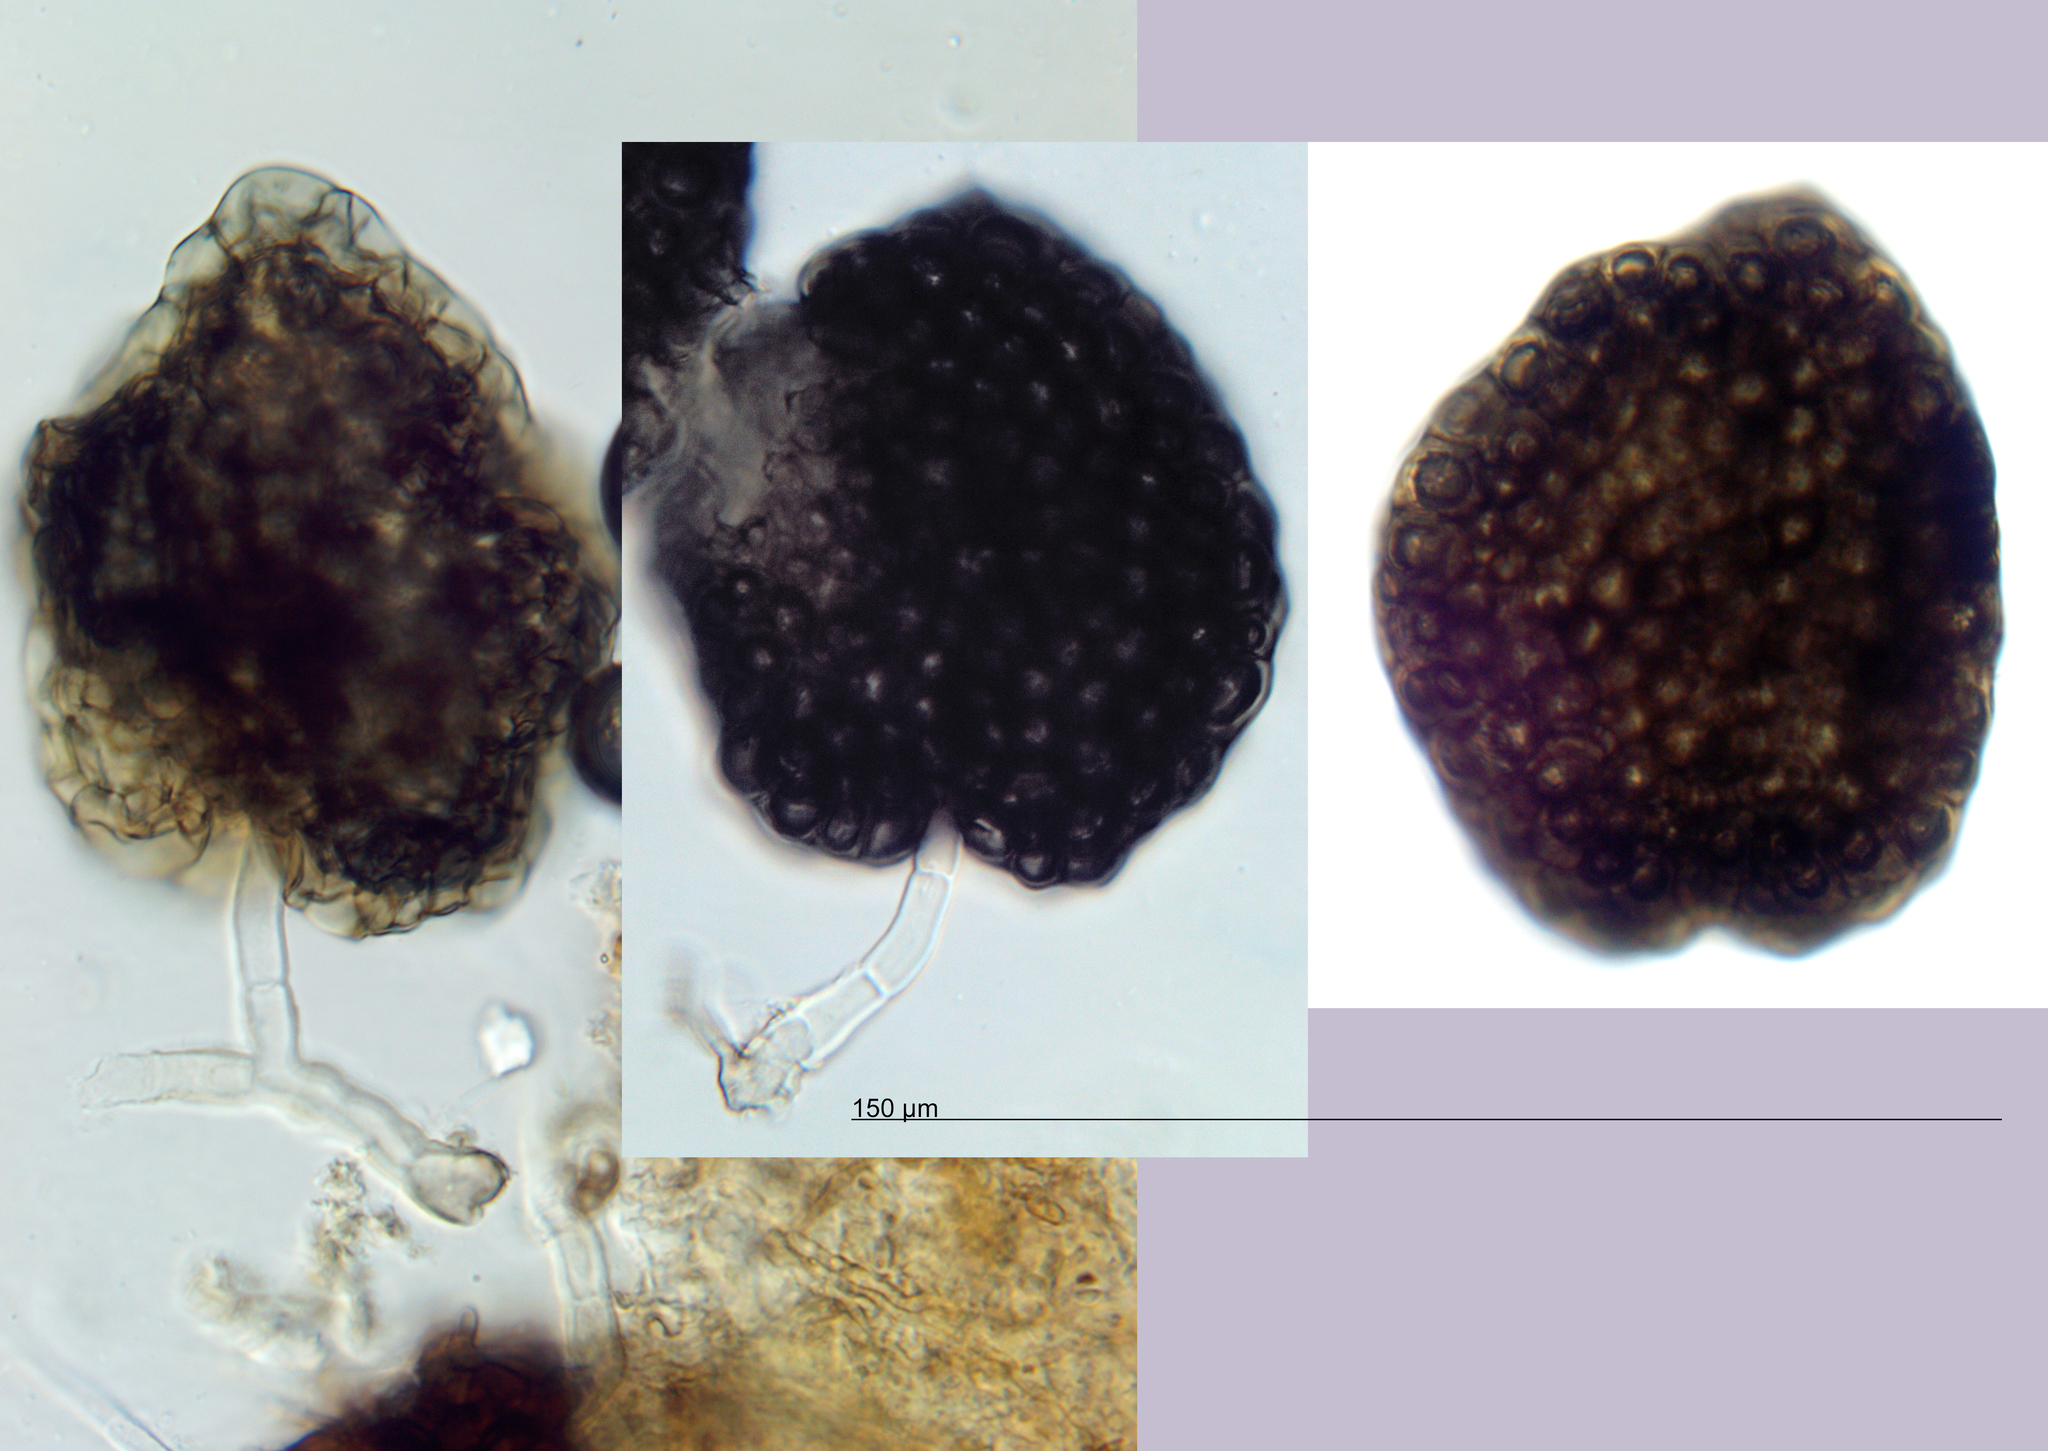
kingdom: Fungi
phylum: Ascomycota
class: Dothideomycetes
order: Pleosporales
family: Melanommataceae
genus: Beverwykella
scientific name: Beverwykella pulmonaria
